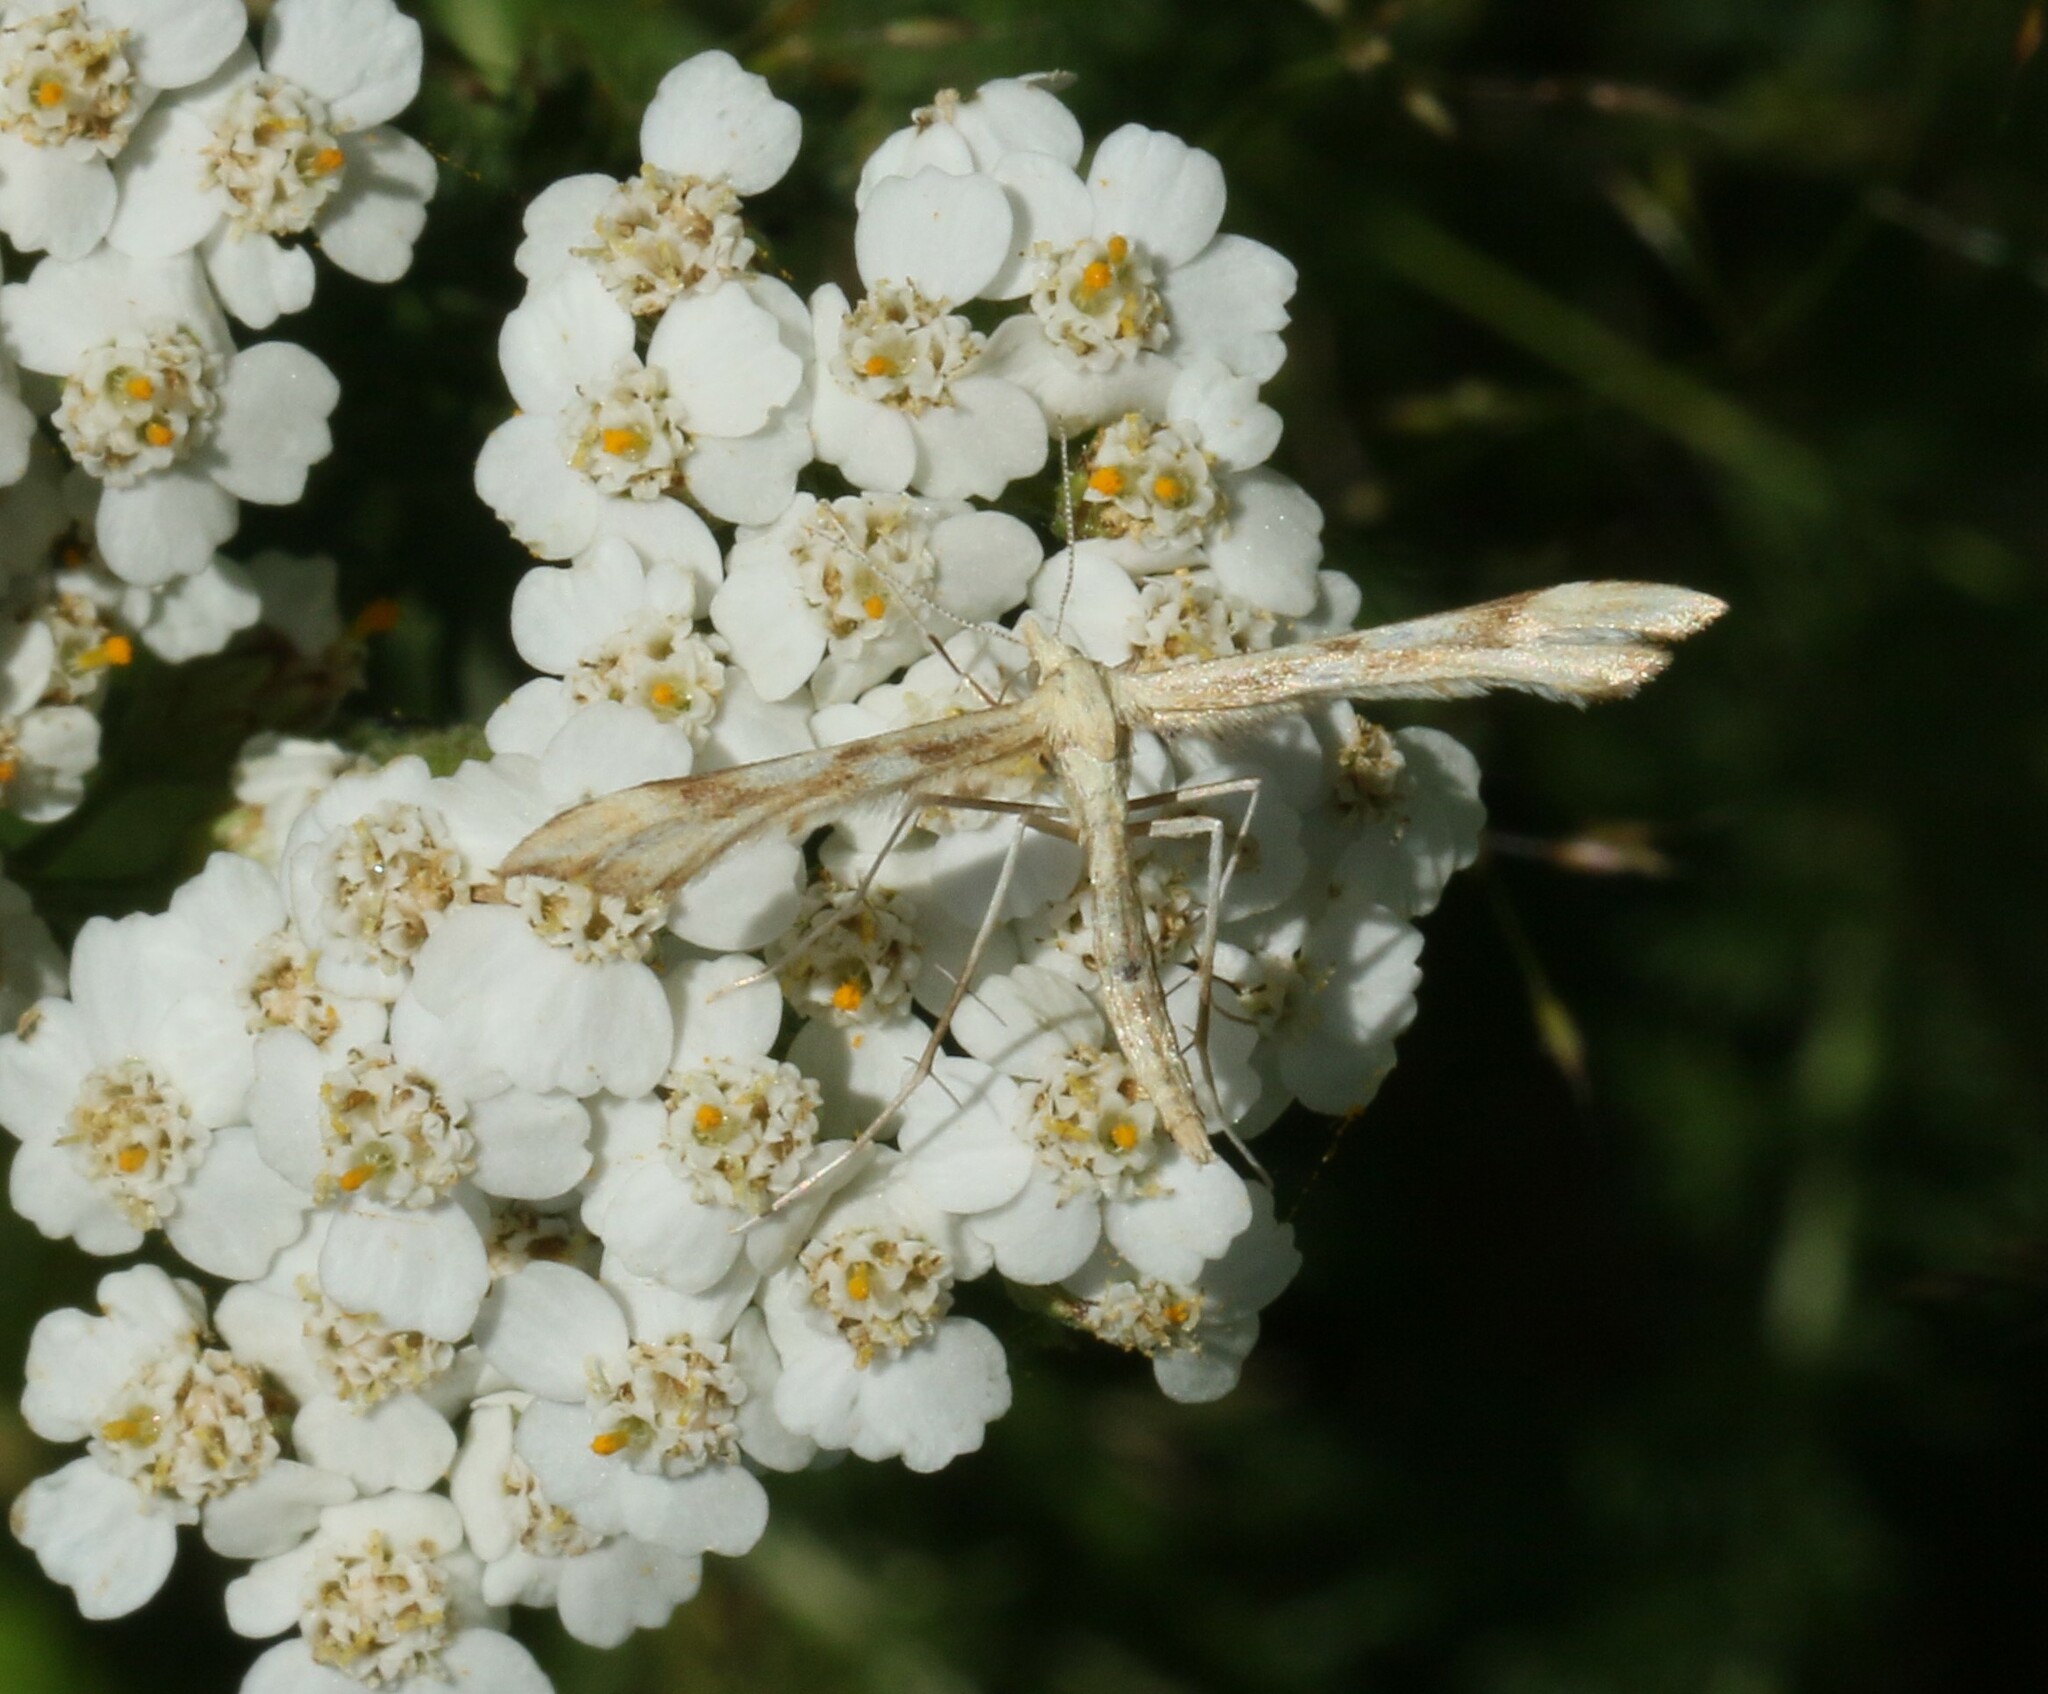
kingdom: Animalia
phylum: Arthropoda
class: Insecta
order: Lepidoptera
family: Pterophoridae
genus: Gillmeria
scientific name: Gillmeria pallidactyla
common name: Yarrow plume
